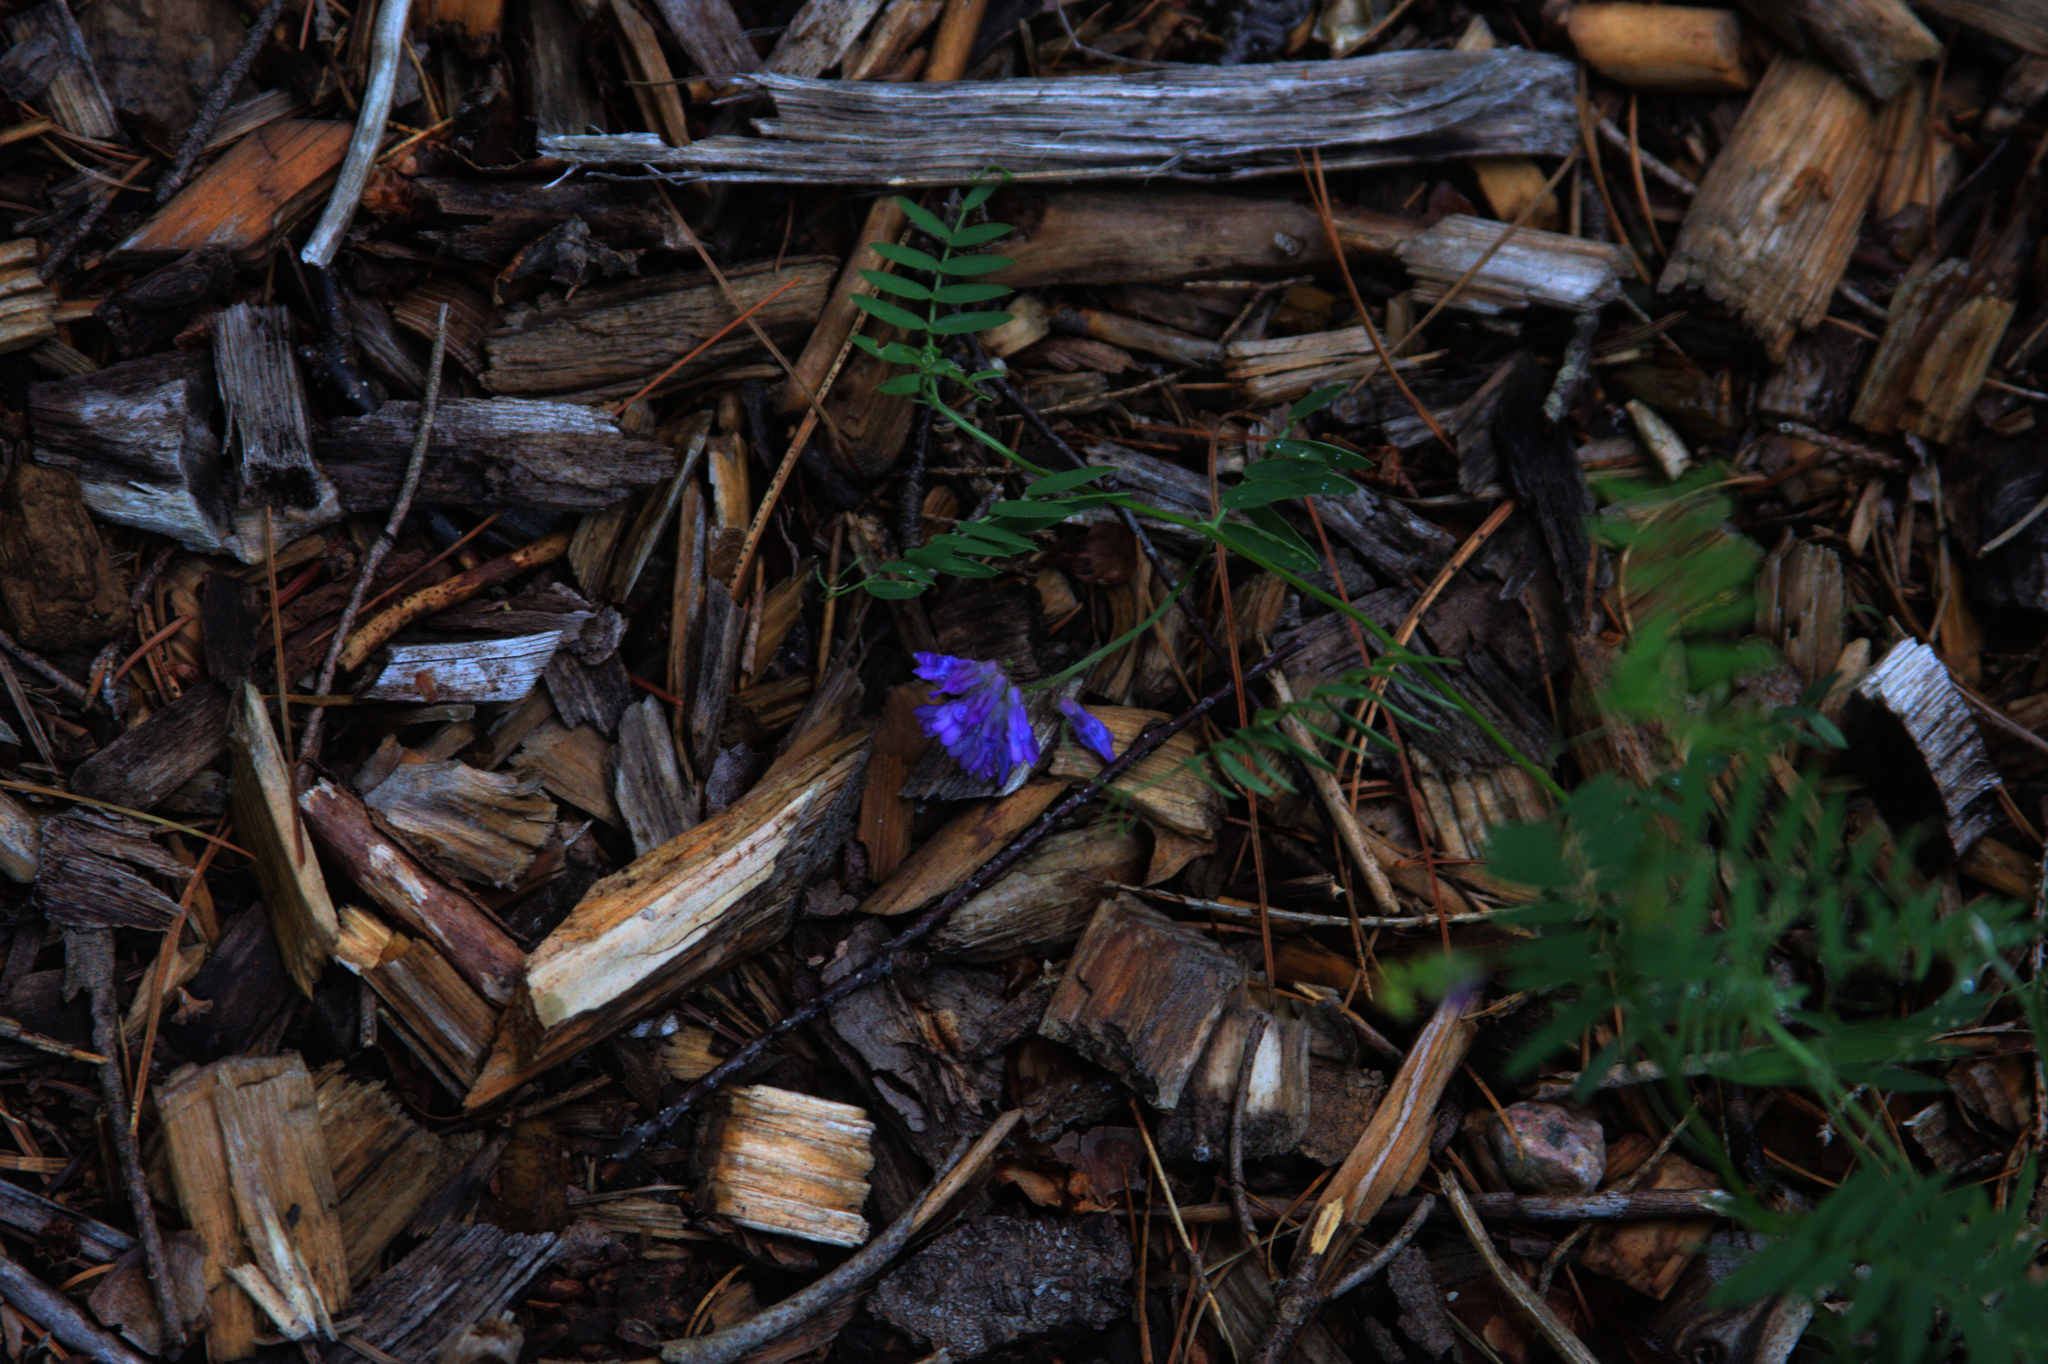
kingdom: Plantae
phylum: Tracheophyta
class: Magnoliopsida
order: Fabales
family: Fabaceae
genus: Vicia
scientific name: Vicia cracca
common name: Bird vetch
